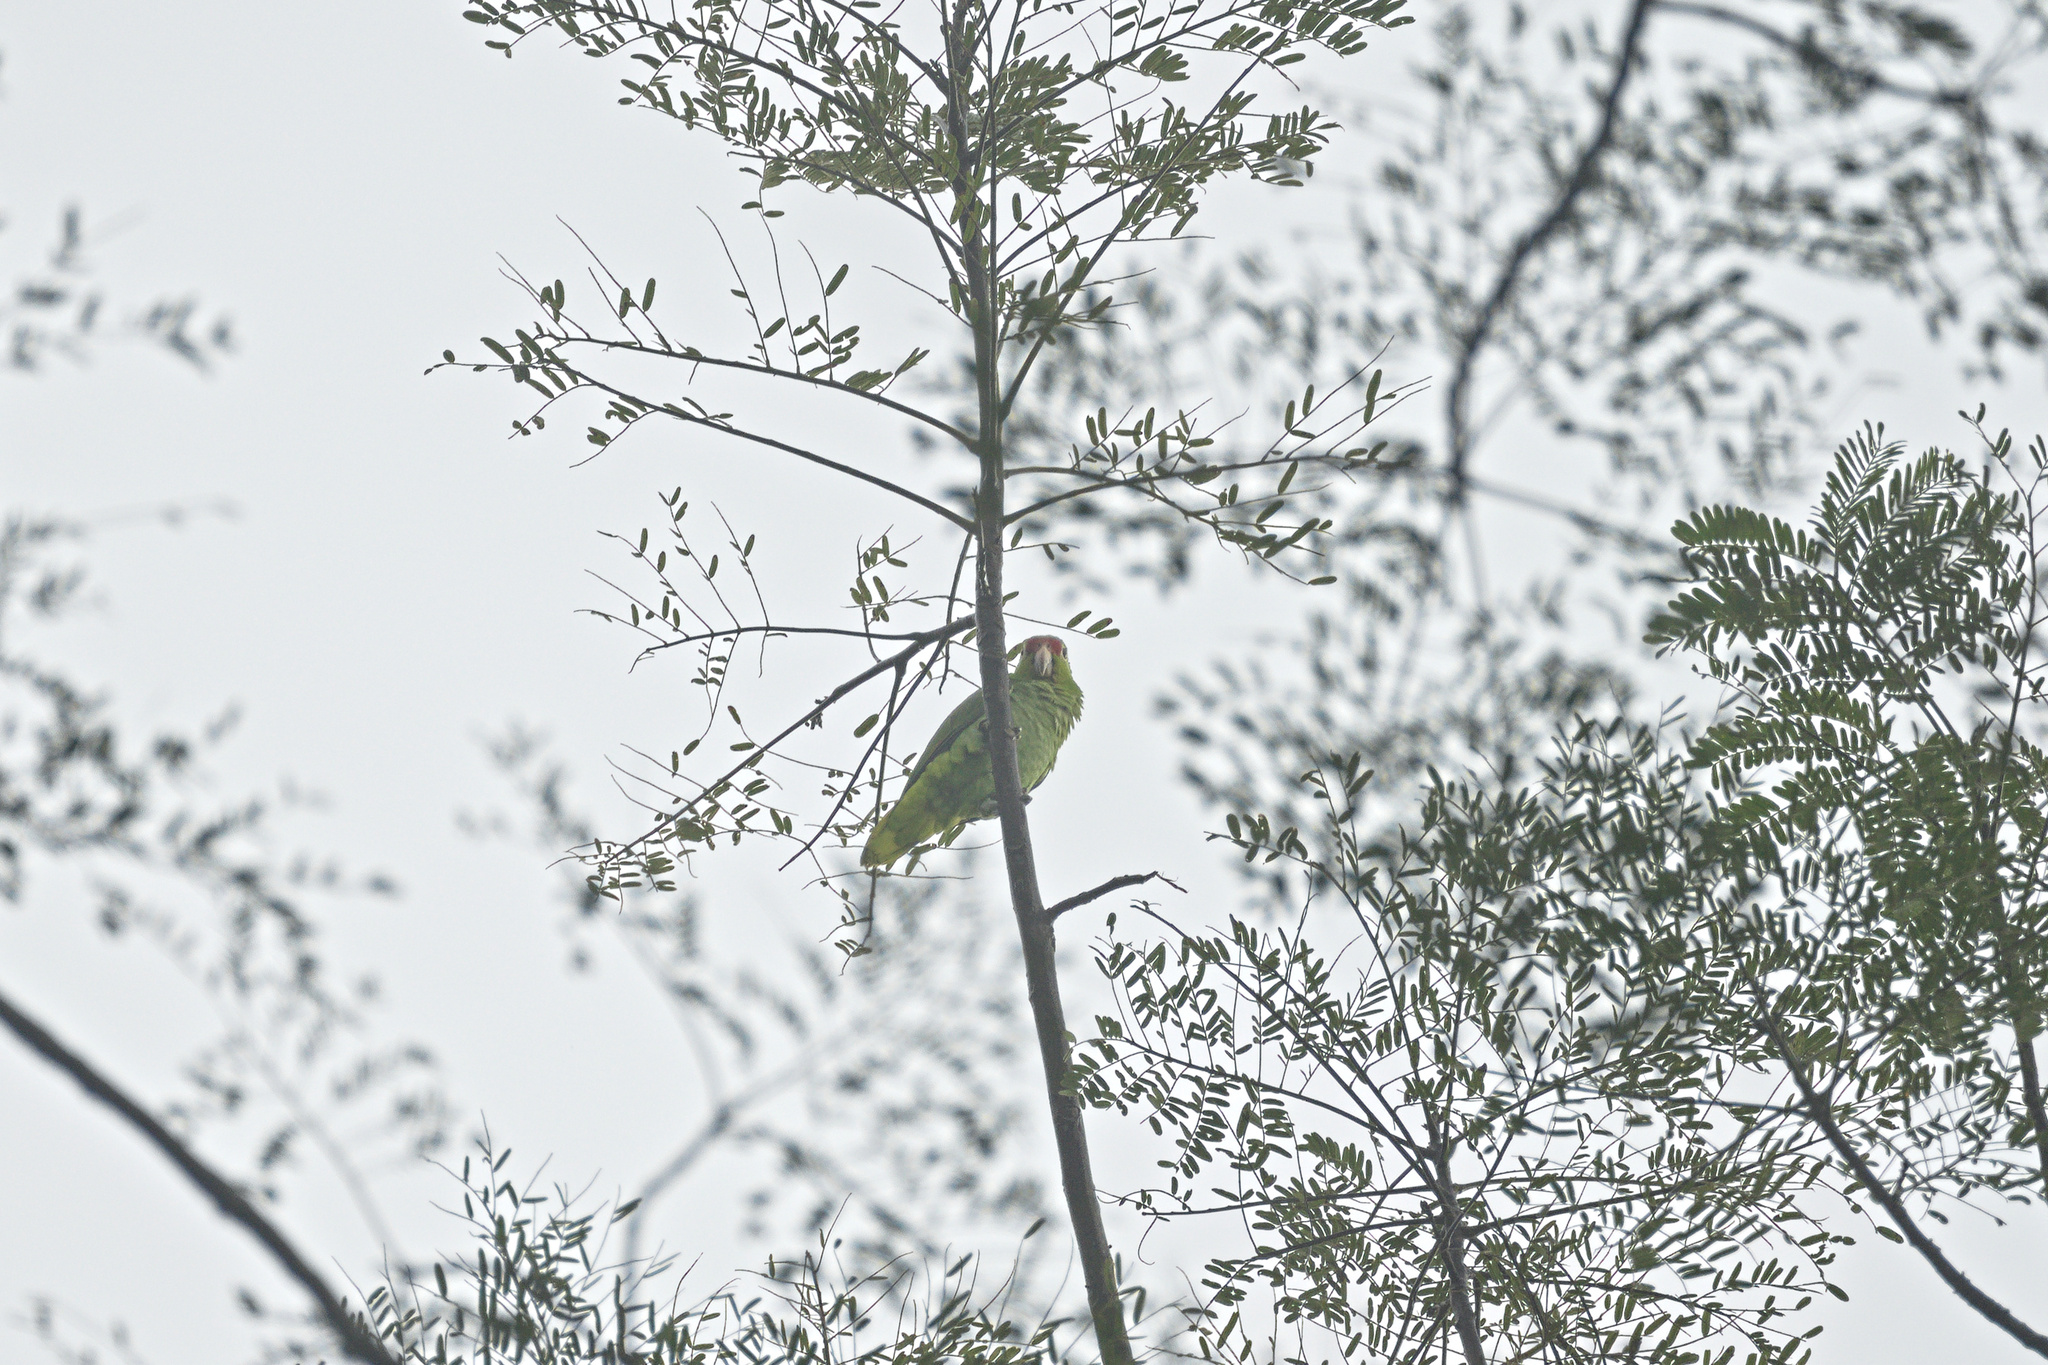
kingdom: Animalia
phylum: Chordata
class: Aves
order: Psittaciformes
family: Psittacidae
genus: Amazona
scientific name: Amazona autumnalis
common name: Red-lored amazon
